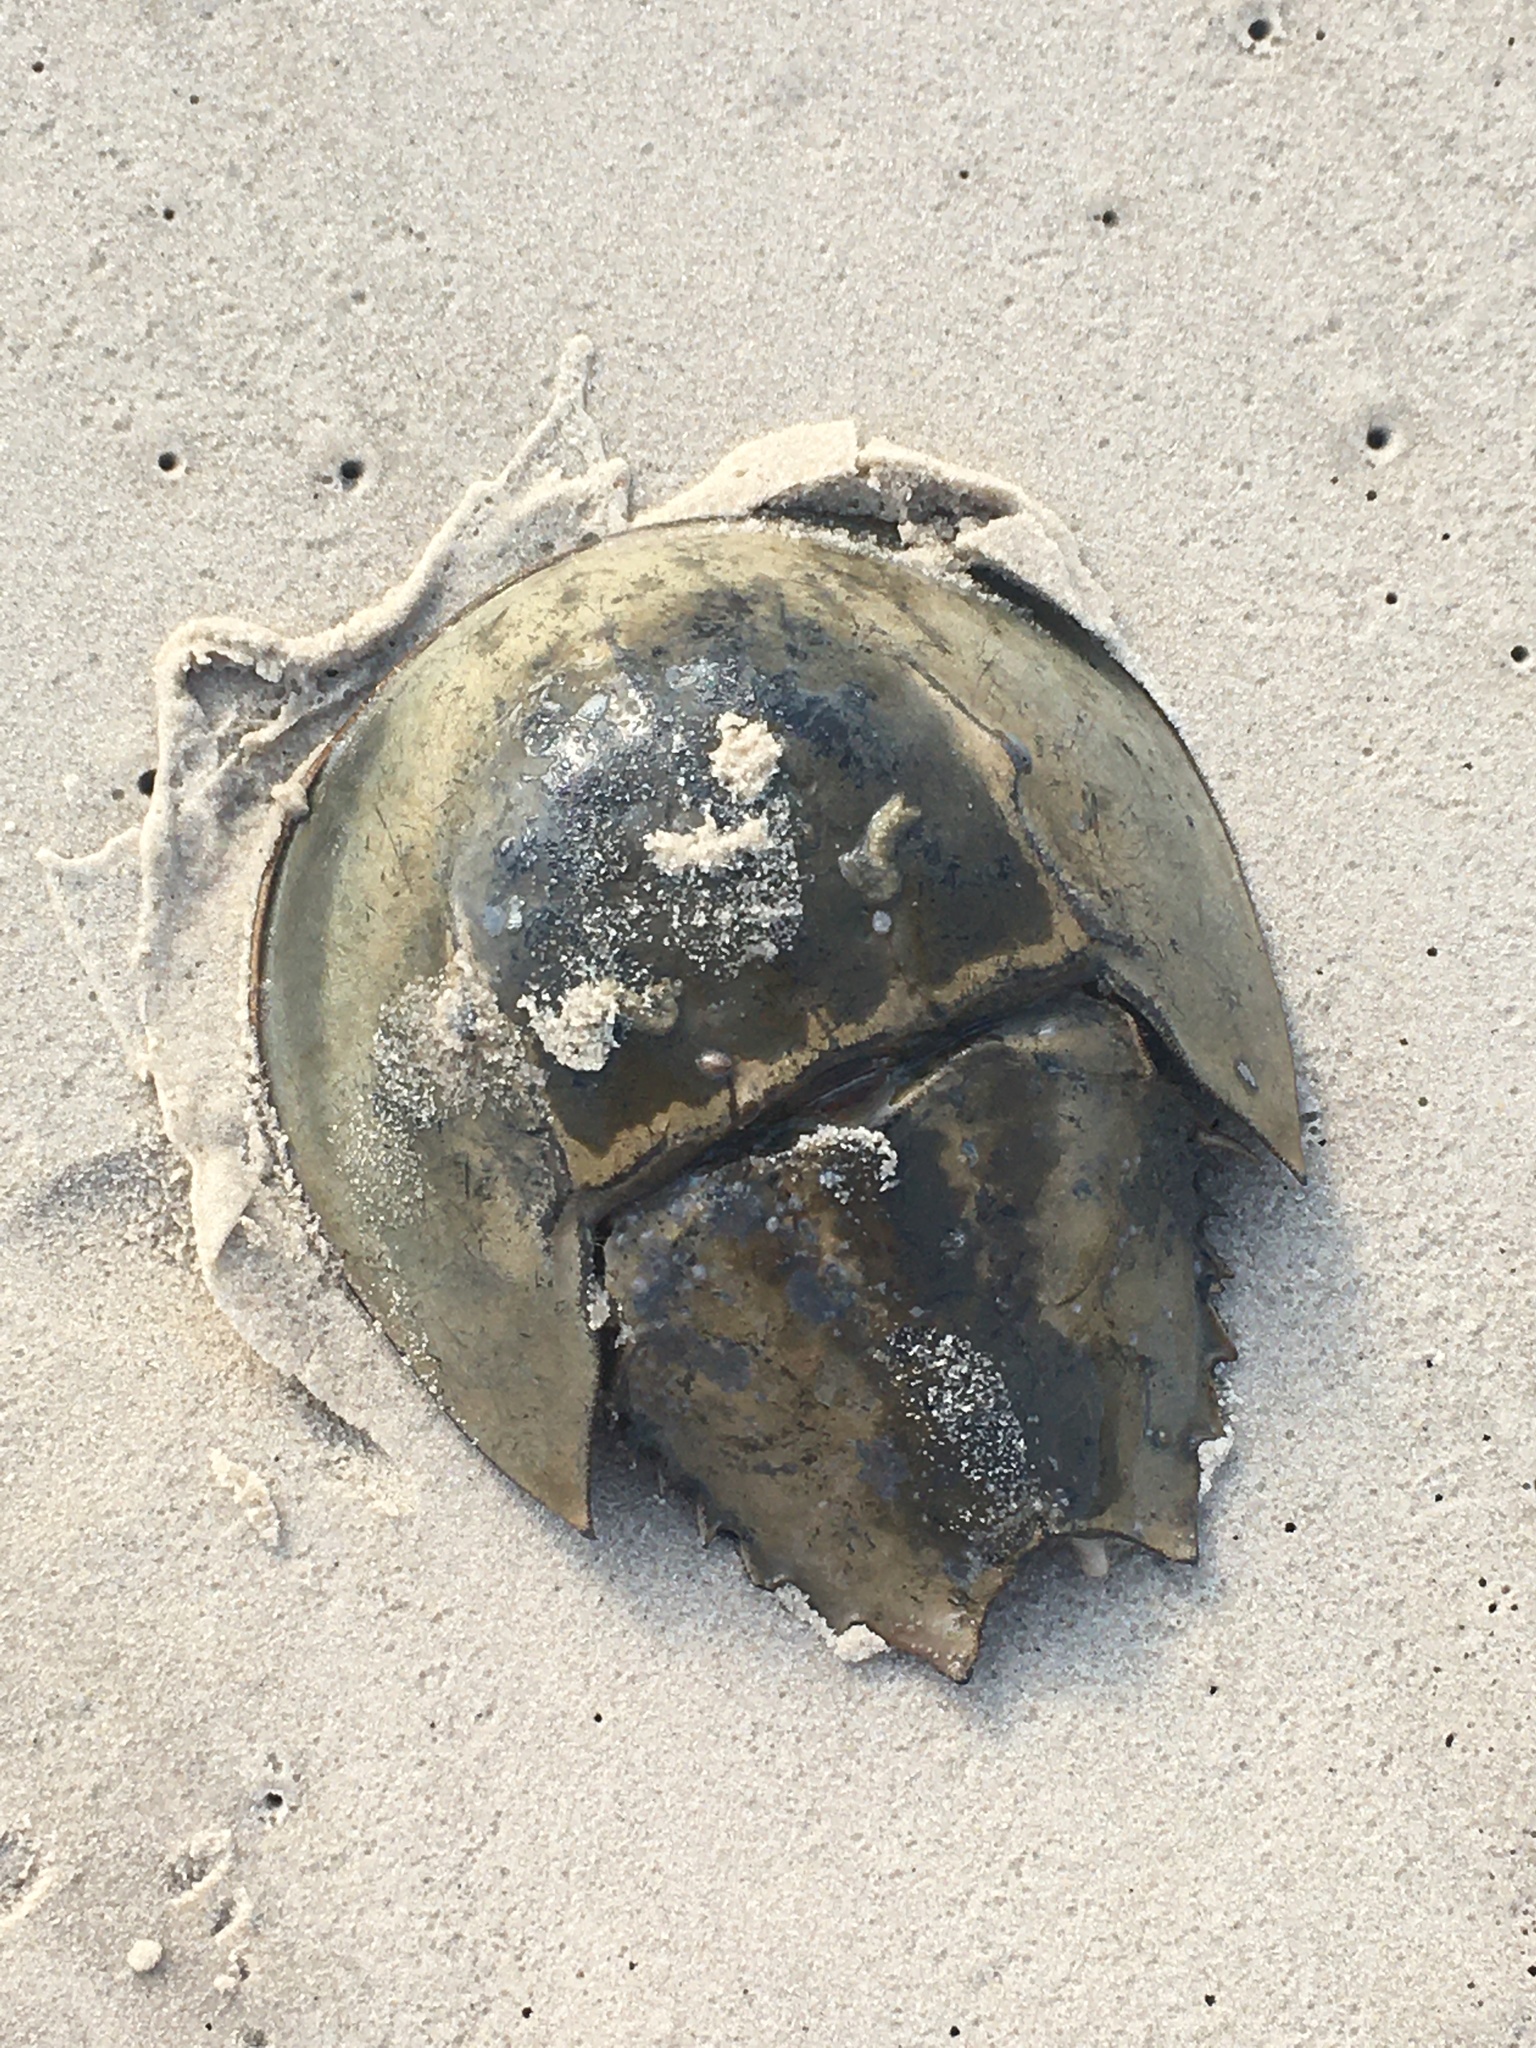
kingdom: Animalia
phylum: Arthropoda
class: Merostomata
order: Xiphosurida
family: Limulidae
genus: Limulus
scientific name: Limulus polyphemus
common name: Horseshoe crab
